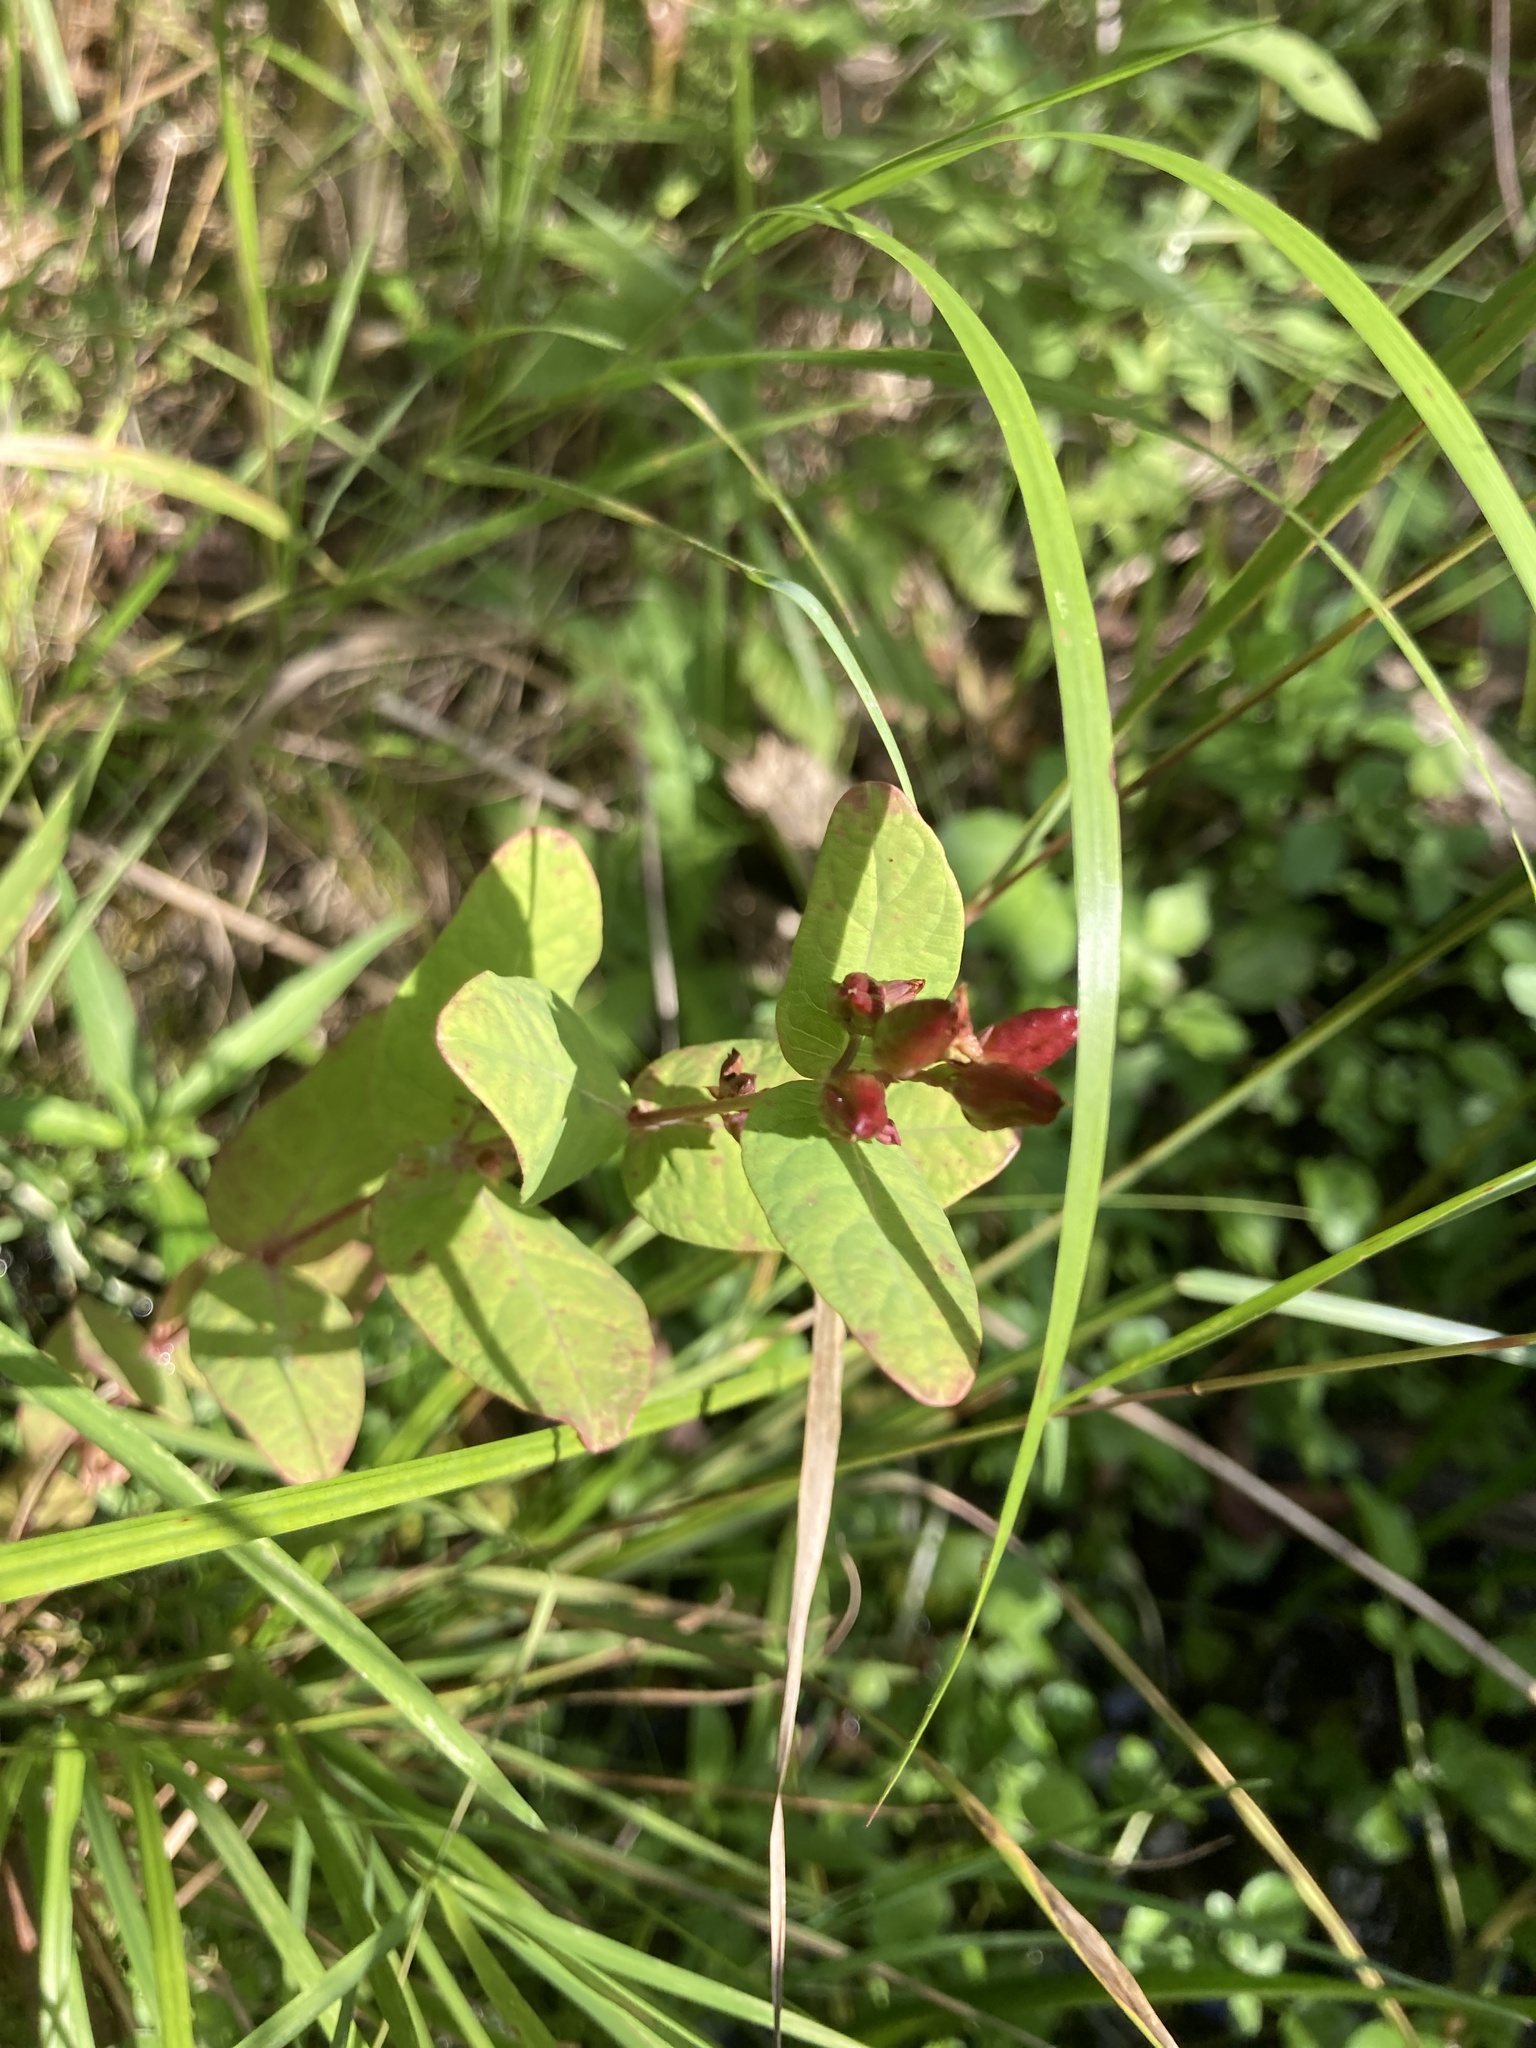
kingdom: Plantae
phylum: Tracheophyta
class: Magnoliopsida
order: Malpighiales
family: Hypericaceae
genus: Triadenum
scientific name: Triadenum fraseri
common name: Fraser's marsh st. johnswort
